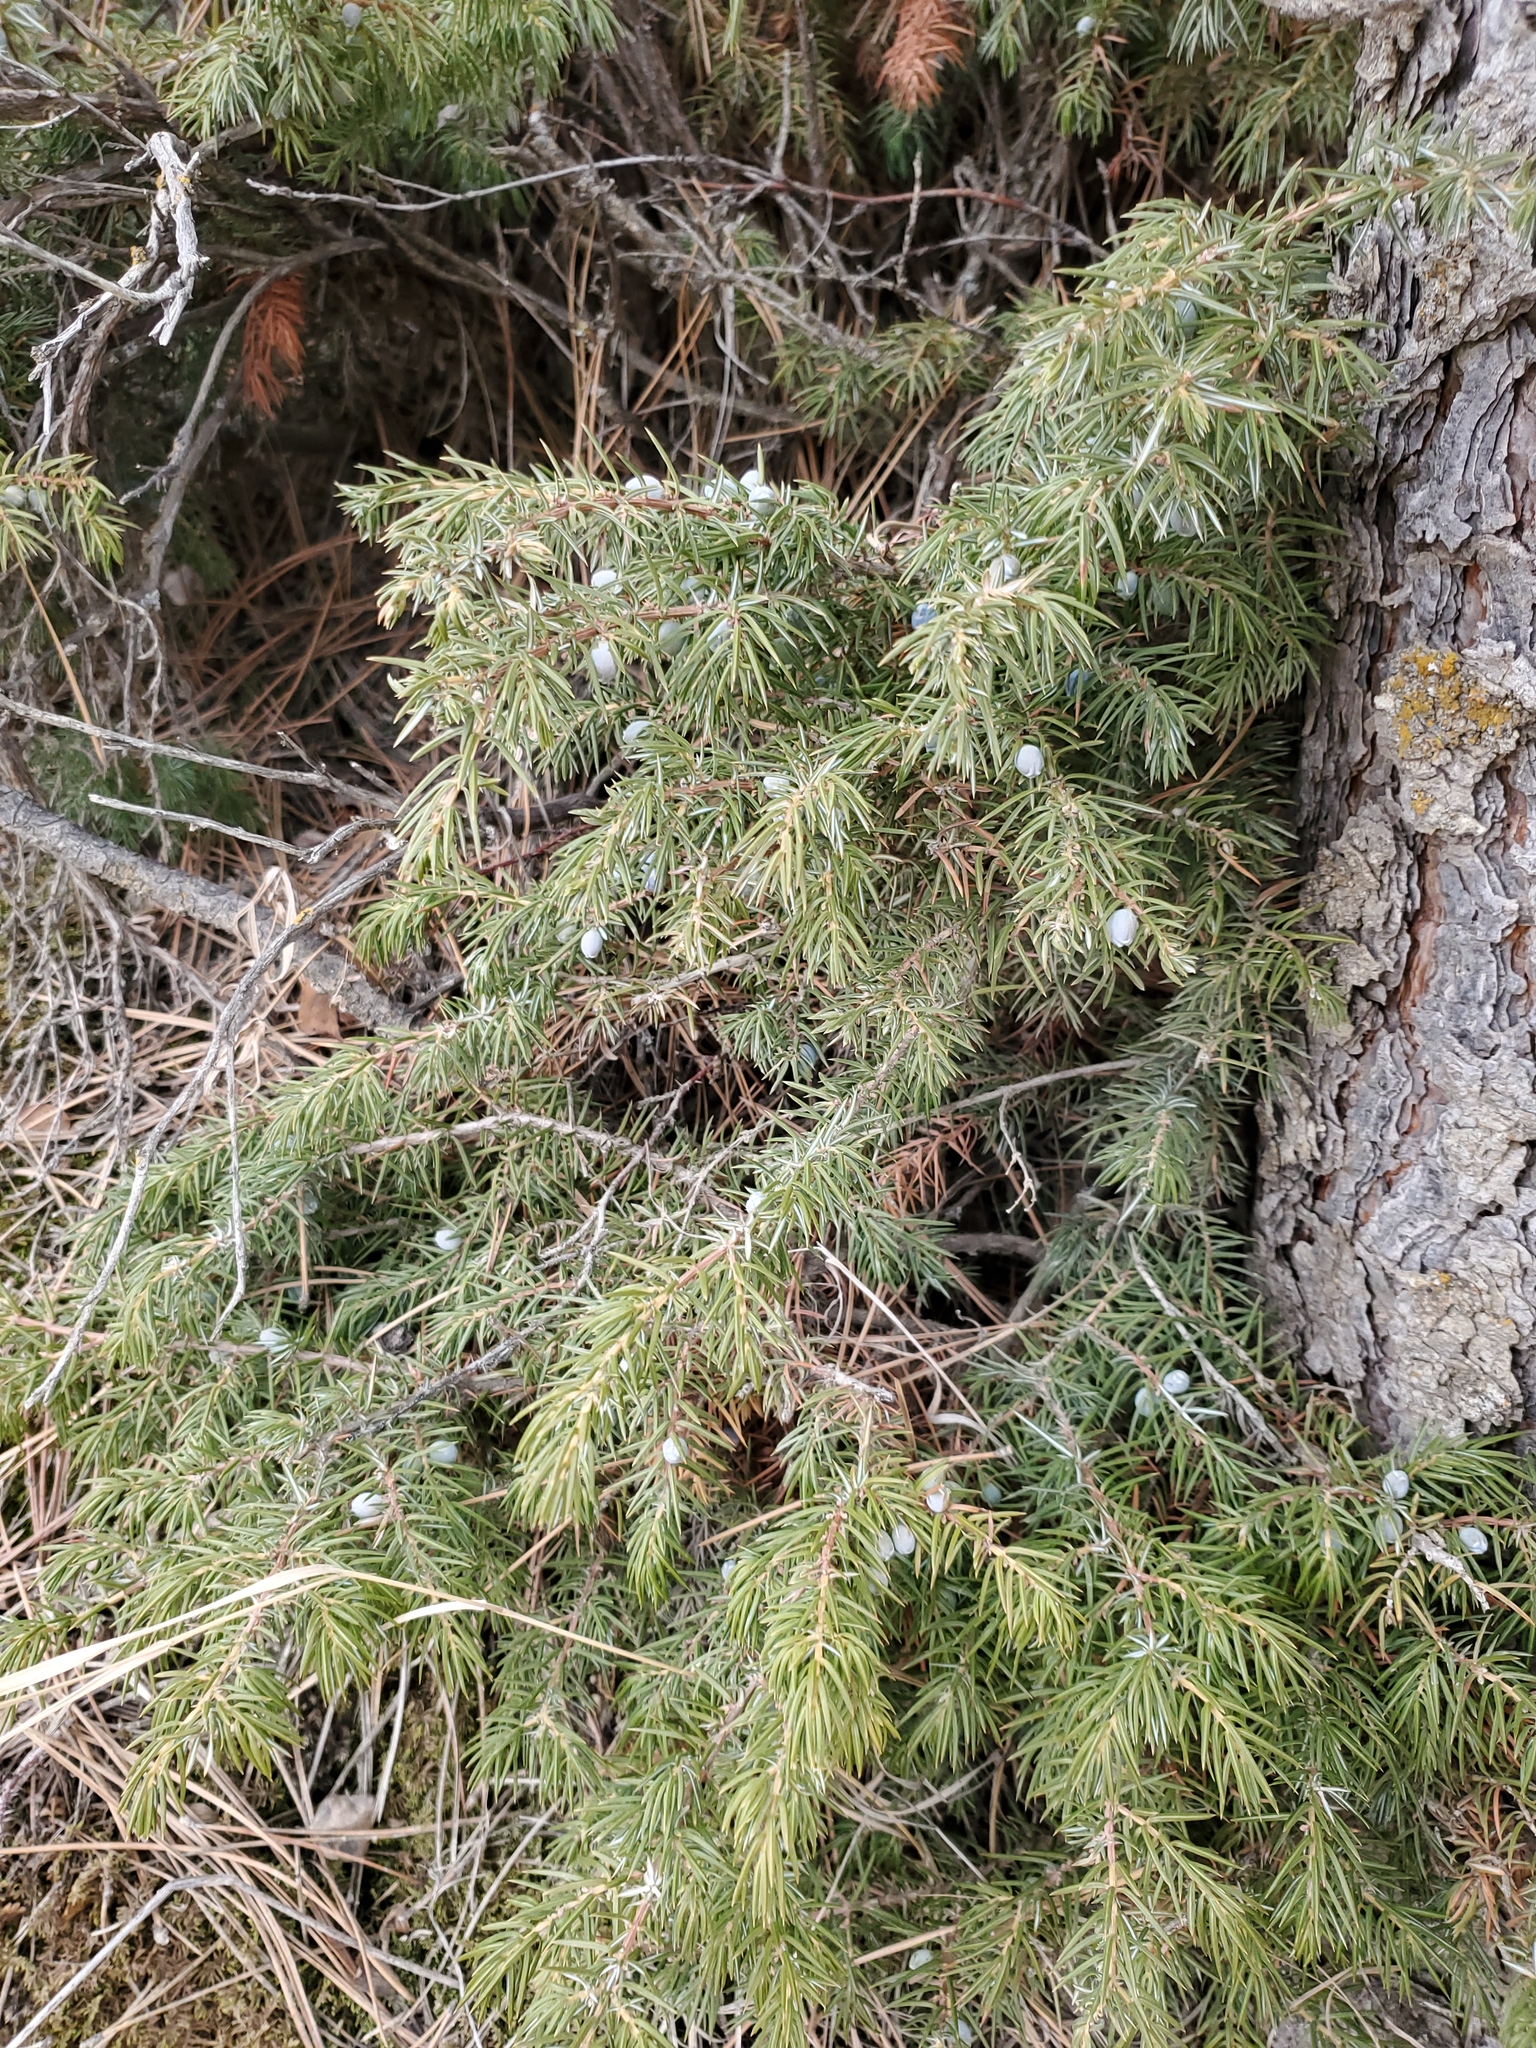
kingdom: Plantae
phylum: Tracheophyta
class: Pinopsida
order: Pinales
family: Cupressaceae
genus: Juniperus
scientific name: Juniperus communis
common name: Common juniper
